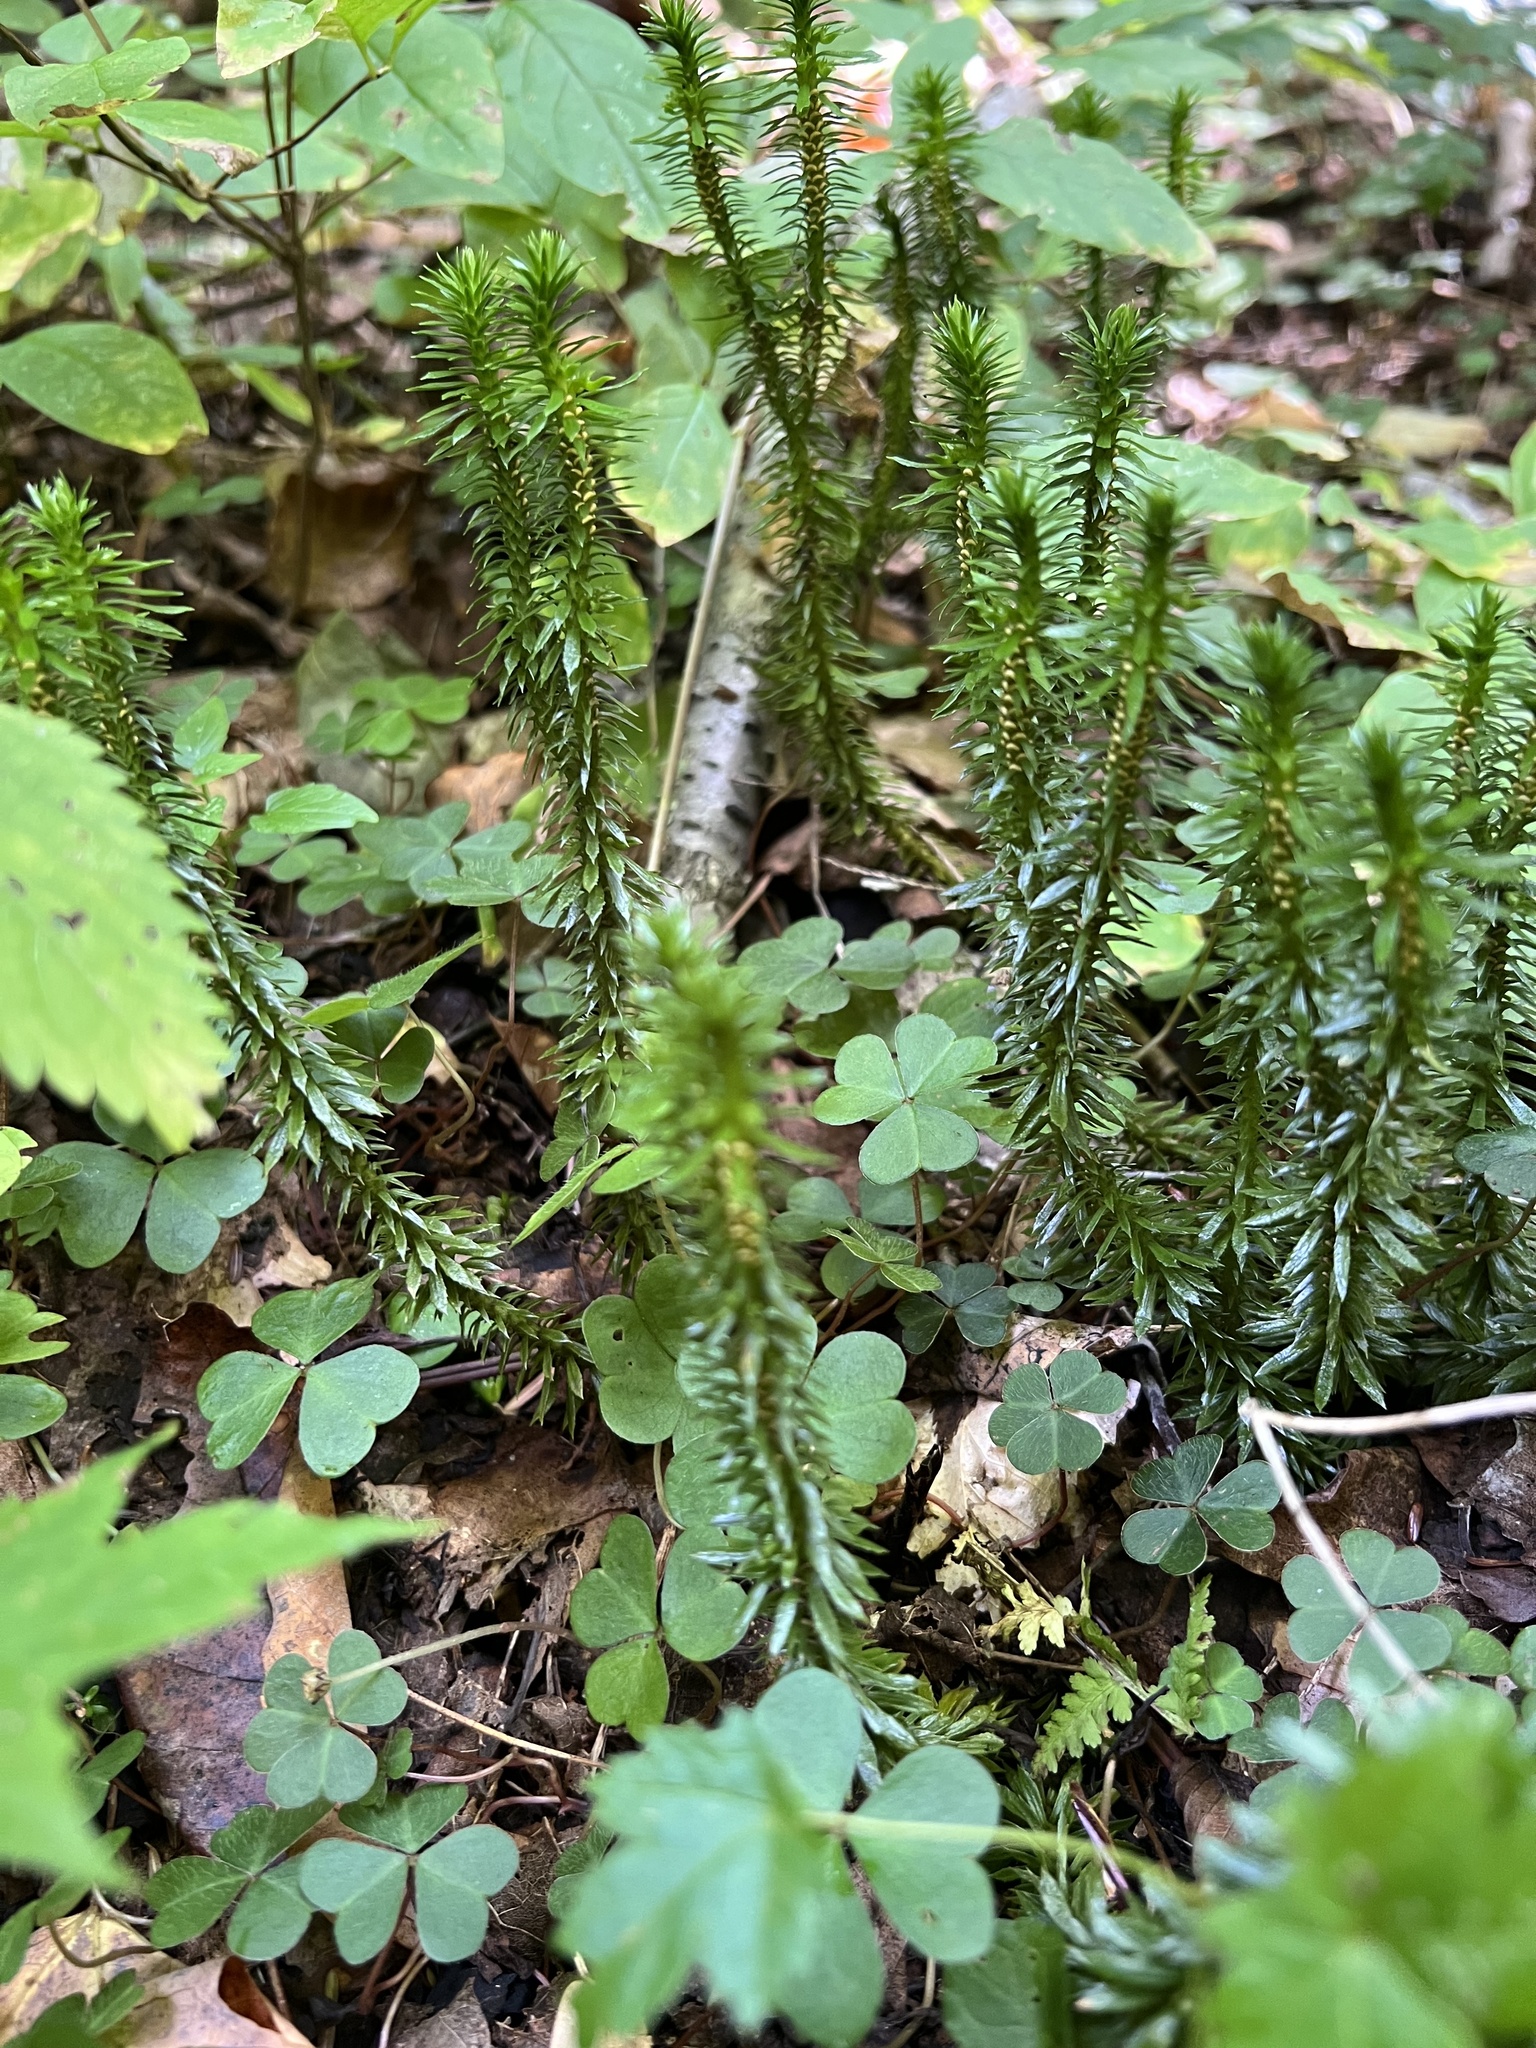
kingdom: Plantae
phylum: Tracheophyta
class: Lycopodiopsida
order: Lycopodiales
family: Lycopodiaceae
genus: Huperzia
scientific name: Huperzia lucidula
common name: Shining clubmoss
